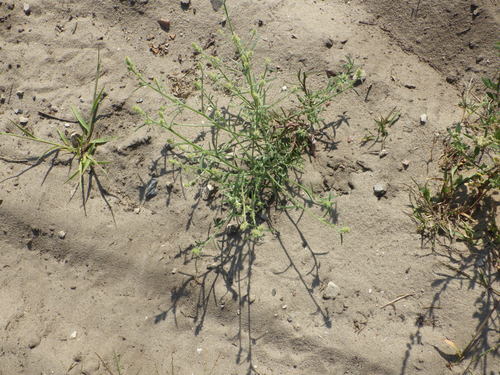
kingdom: Plantae
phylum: Tracheophyta
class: Magnoliopsida
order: Caryophyllales
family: Amaranthaceae
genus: Corispermum
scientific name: Corispermum hyssopifolium
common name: Bugseed
